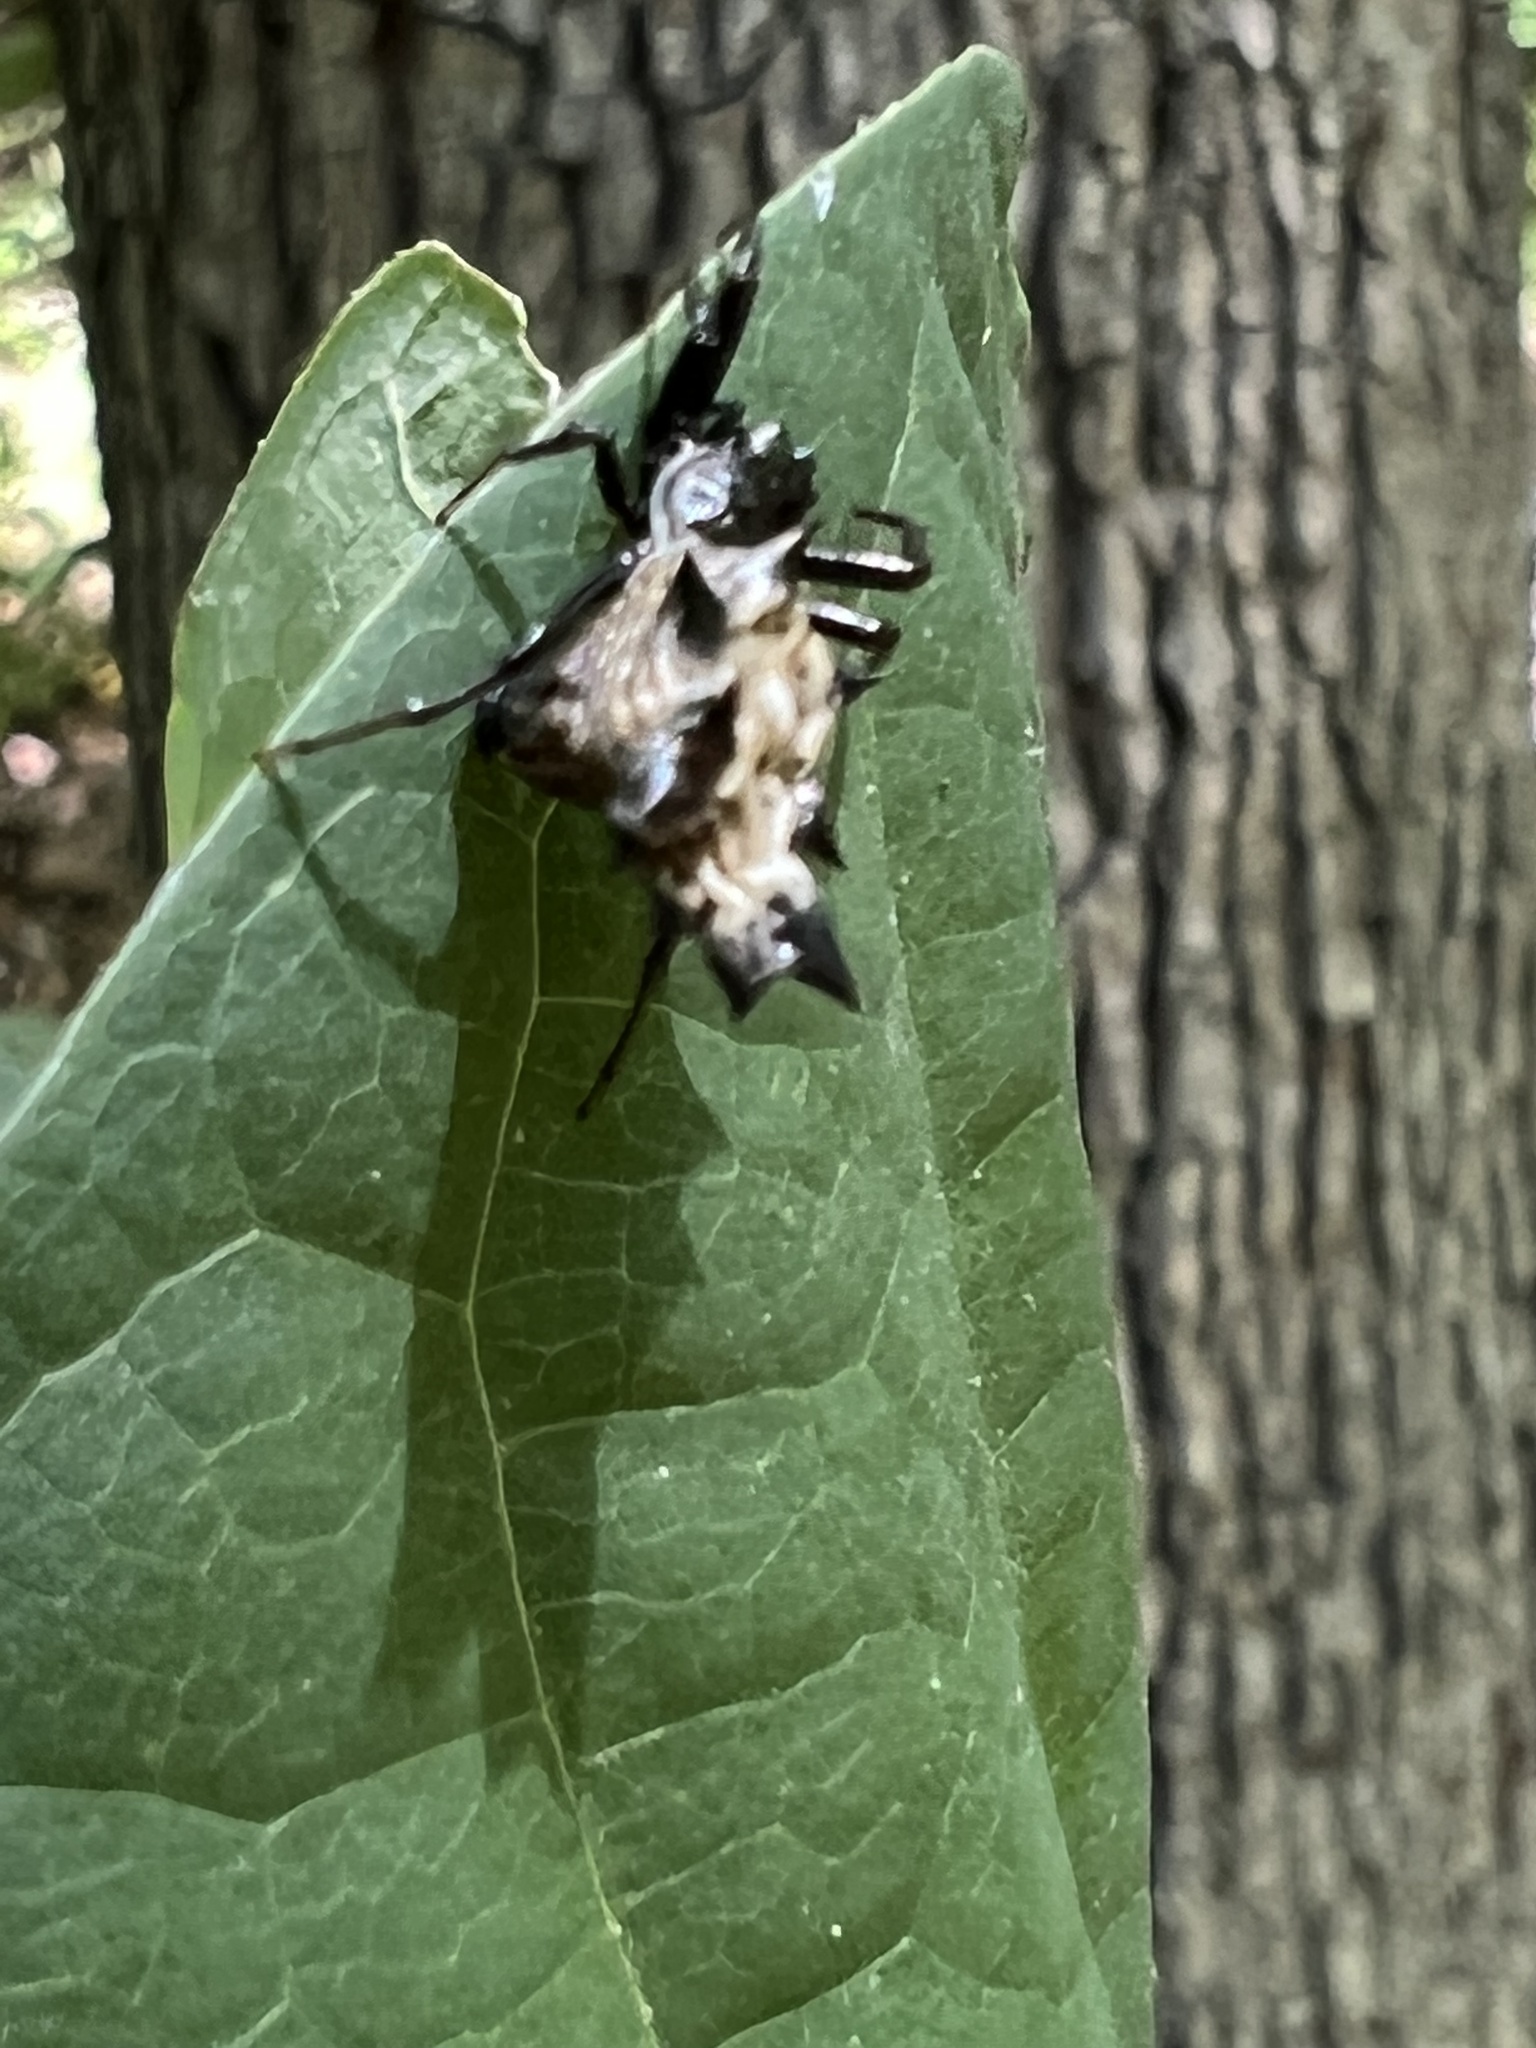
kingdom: Animalia
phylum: Arthropoda
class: Arachnida
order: Araneae
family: Araneidae
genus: Micrathena
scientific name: Micrathena gracilis
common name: Orb weavers
